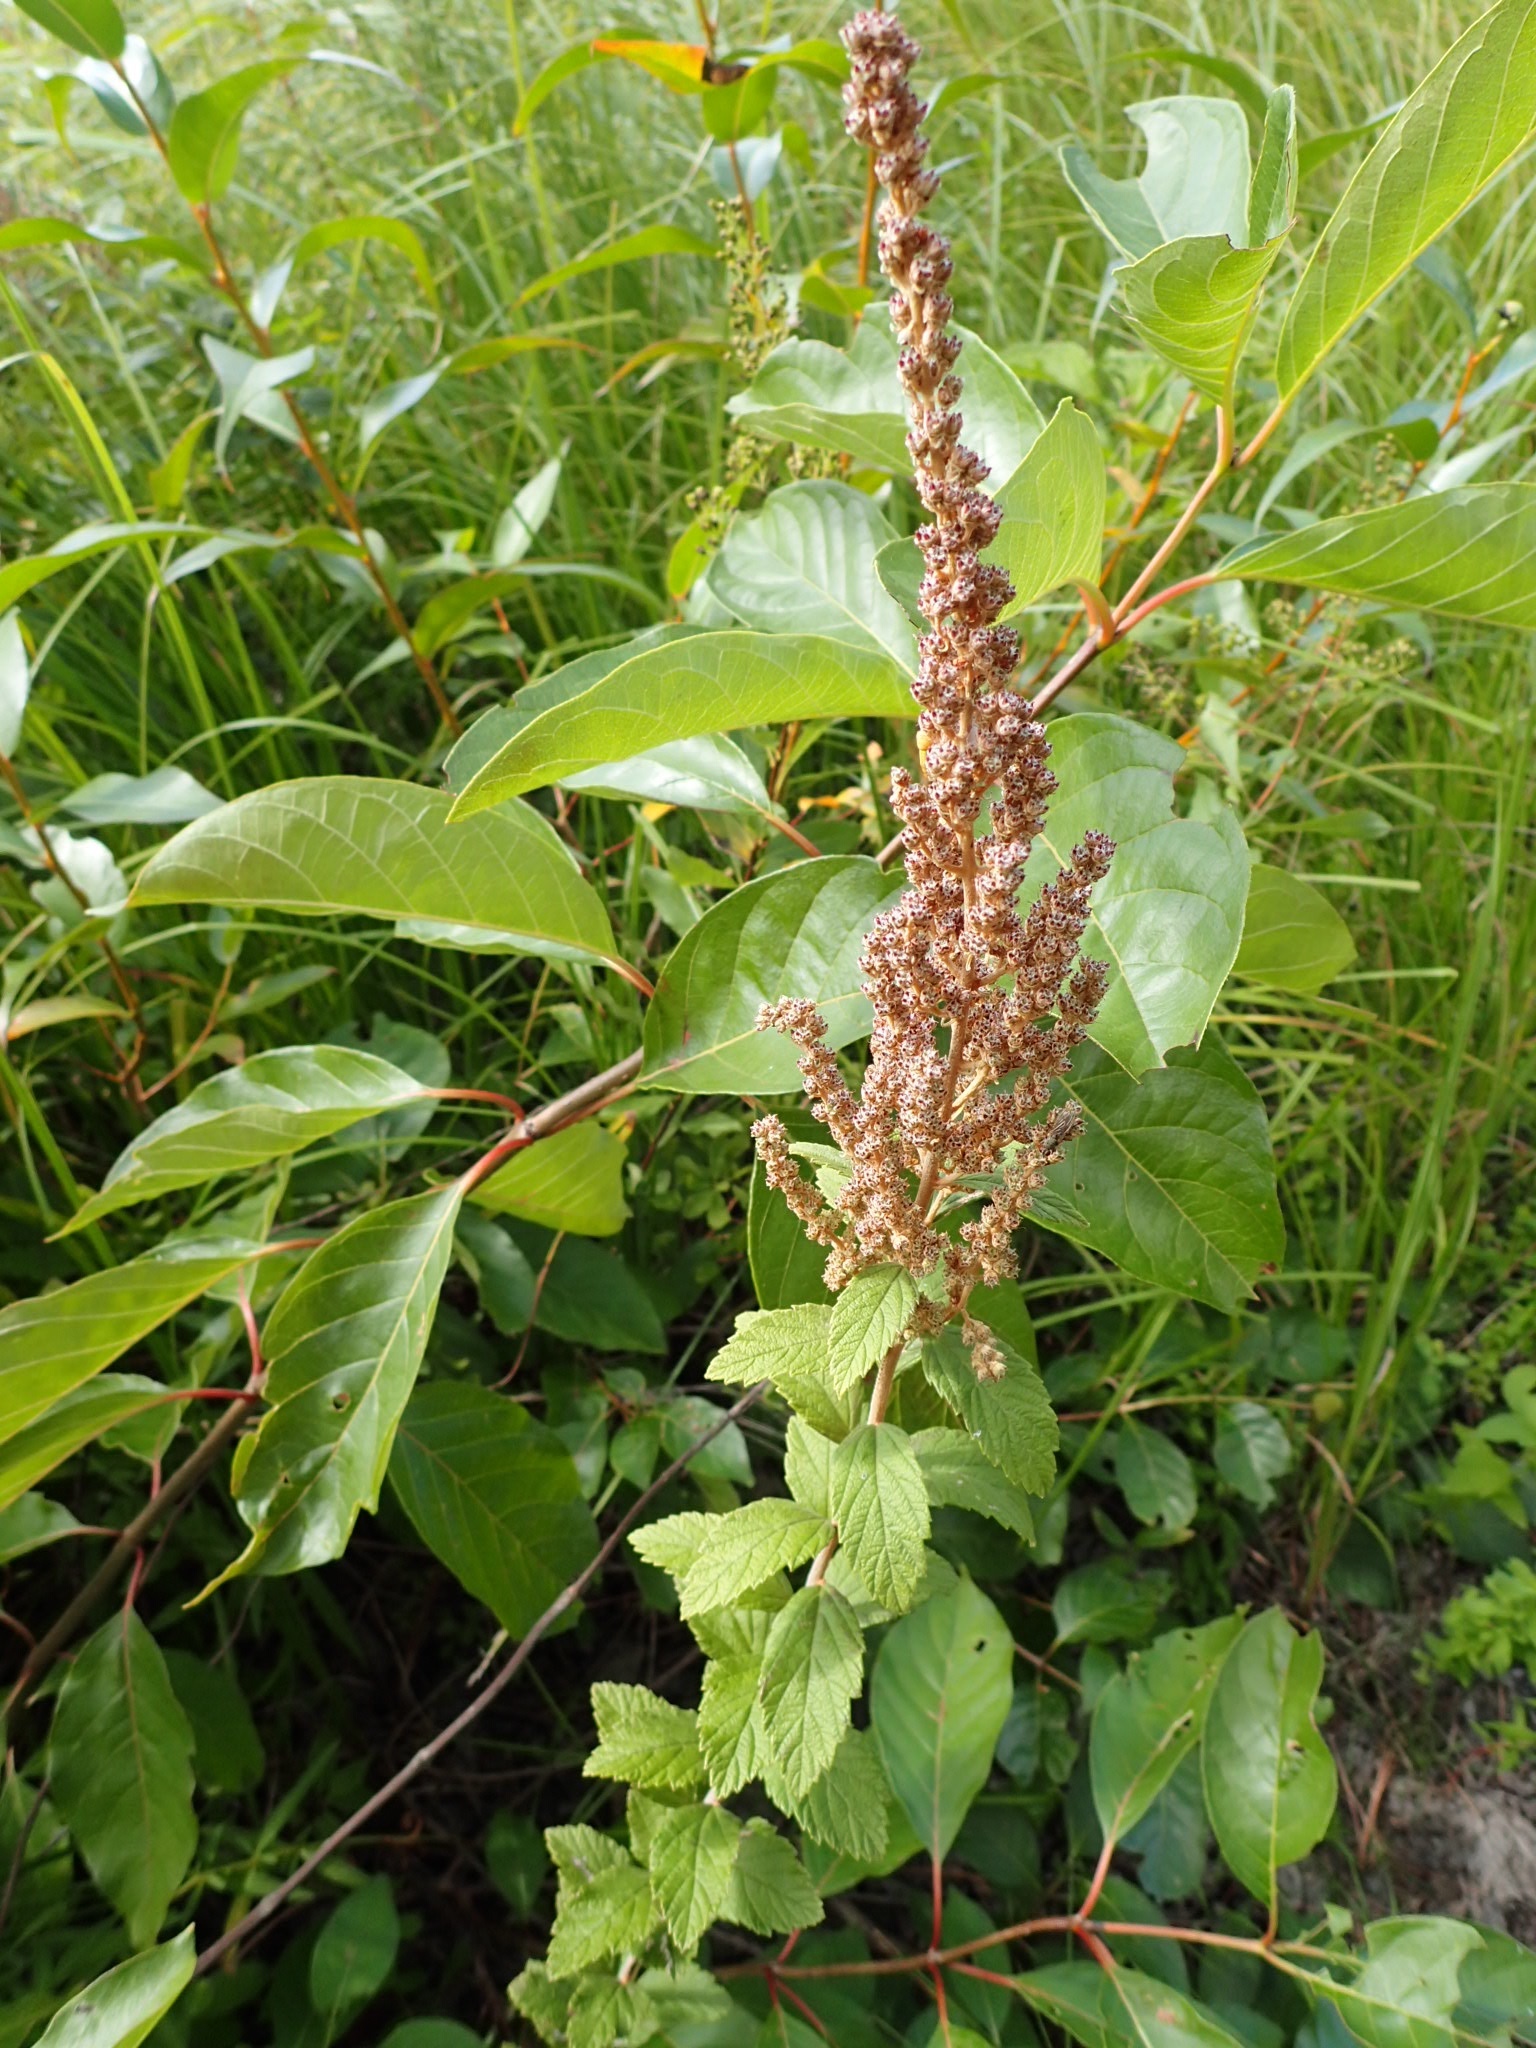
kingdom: Plantae
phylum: Tracheophyta
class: Magnoliopsida
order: Rosales
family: Rosaceae
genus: Spiraea
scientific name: Spiraea tomentosa
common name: Hardhack
